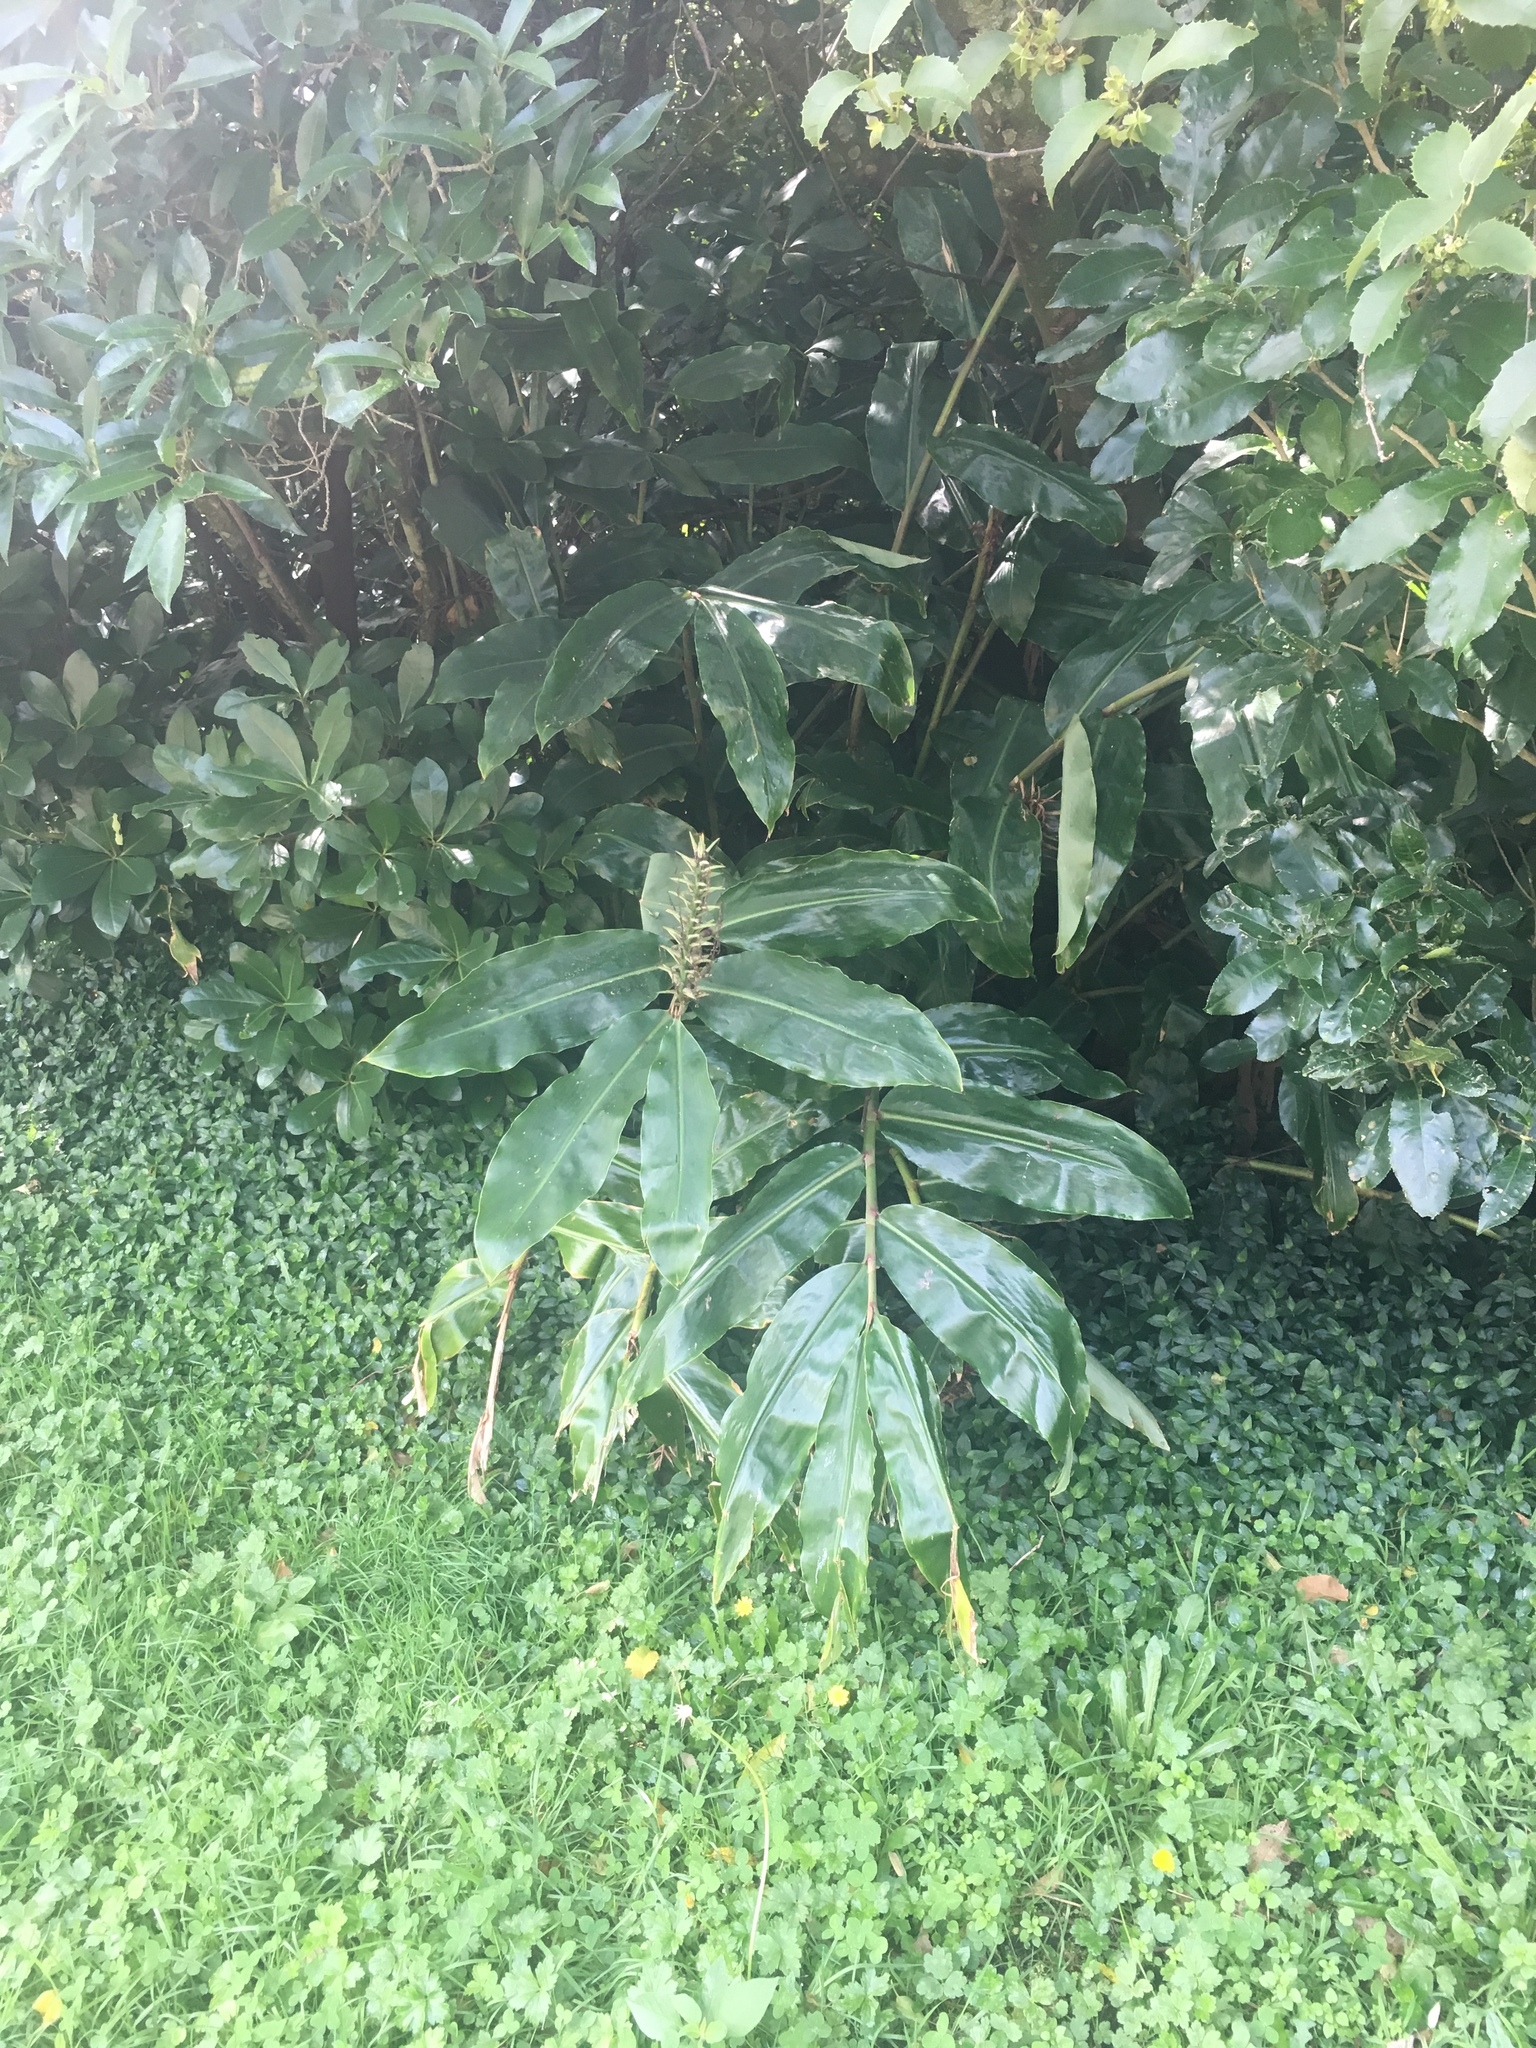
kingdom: Plantae
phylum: Tracheophyta
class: Liliopsida
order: Zingiberales
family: Zingiberaceae
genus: Hedychium
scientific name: Hedychium gardnerianum
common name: Himalayan ginger
